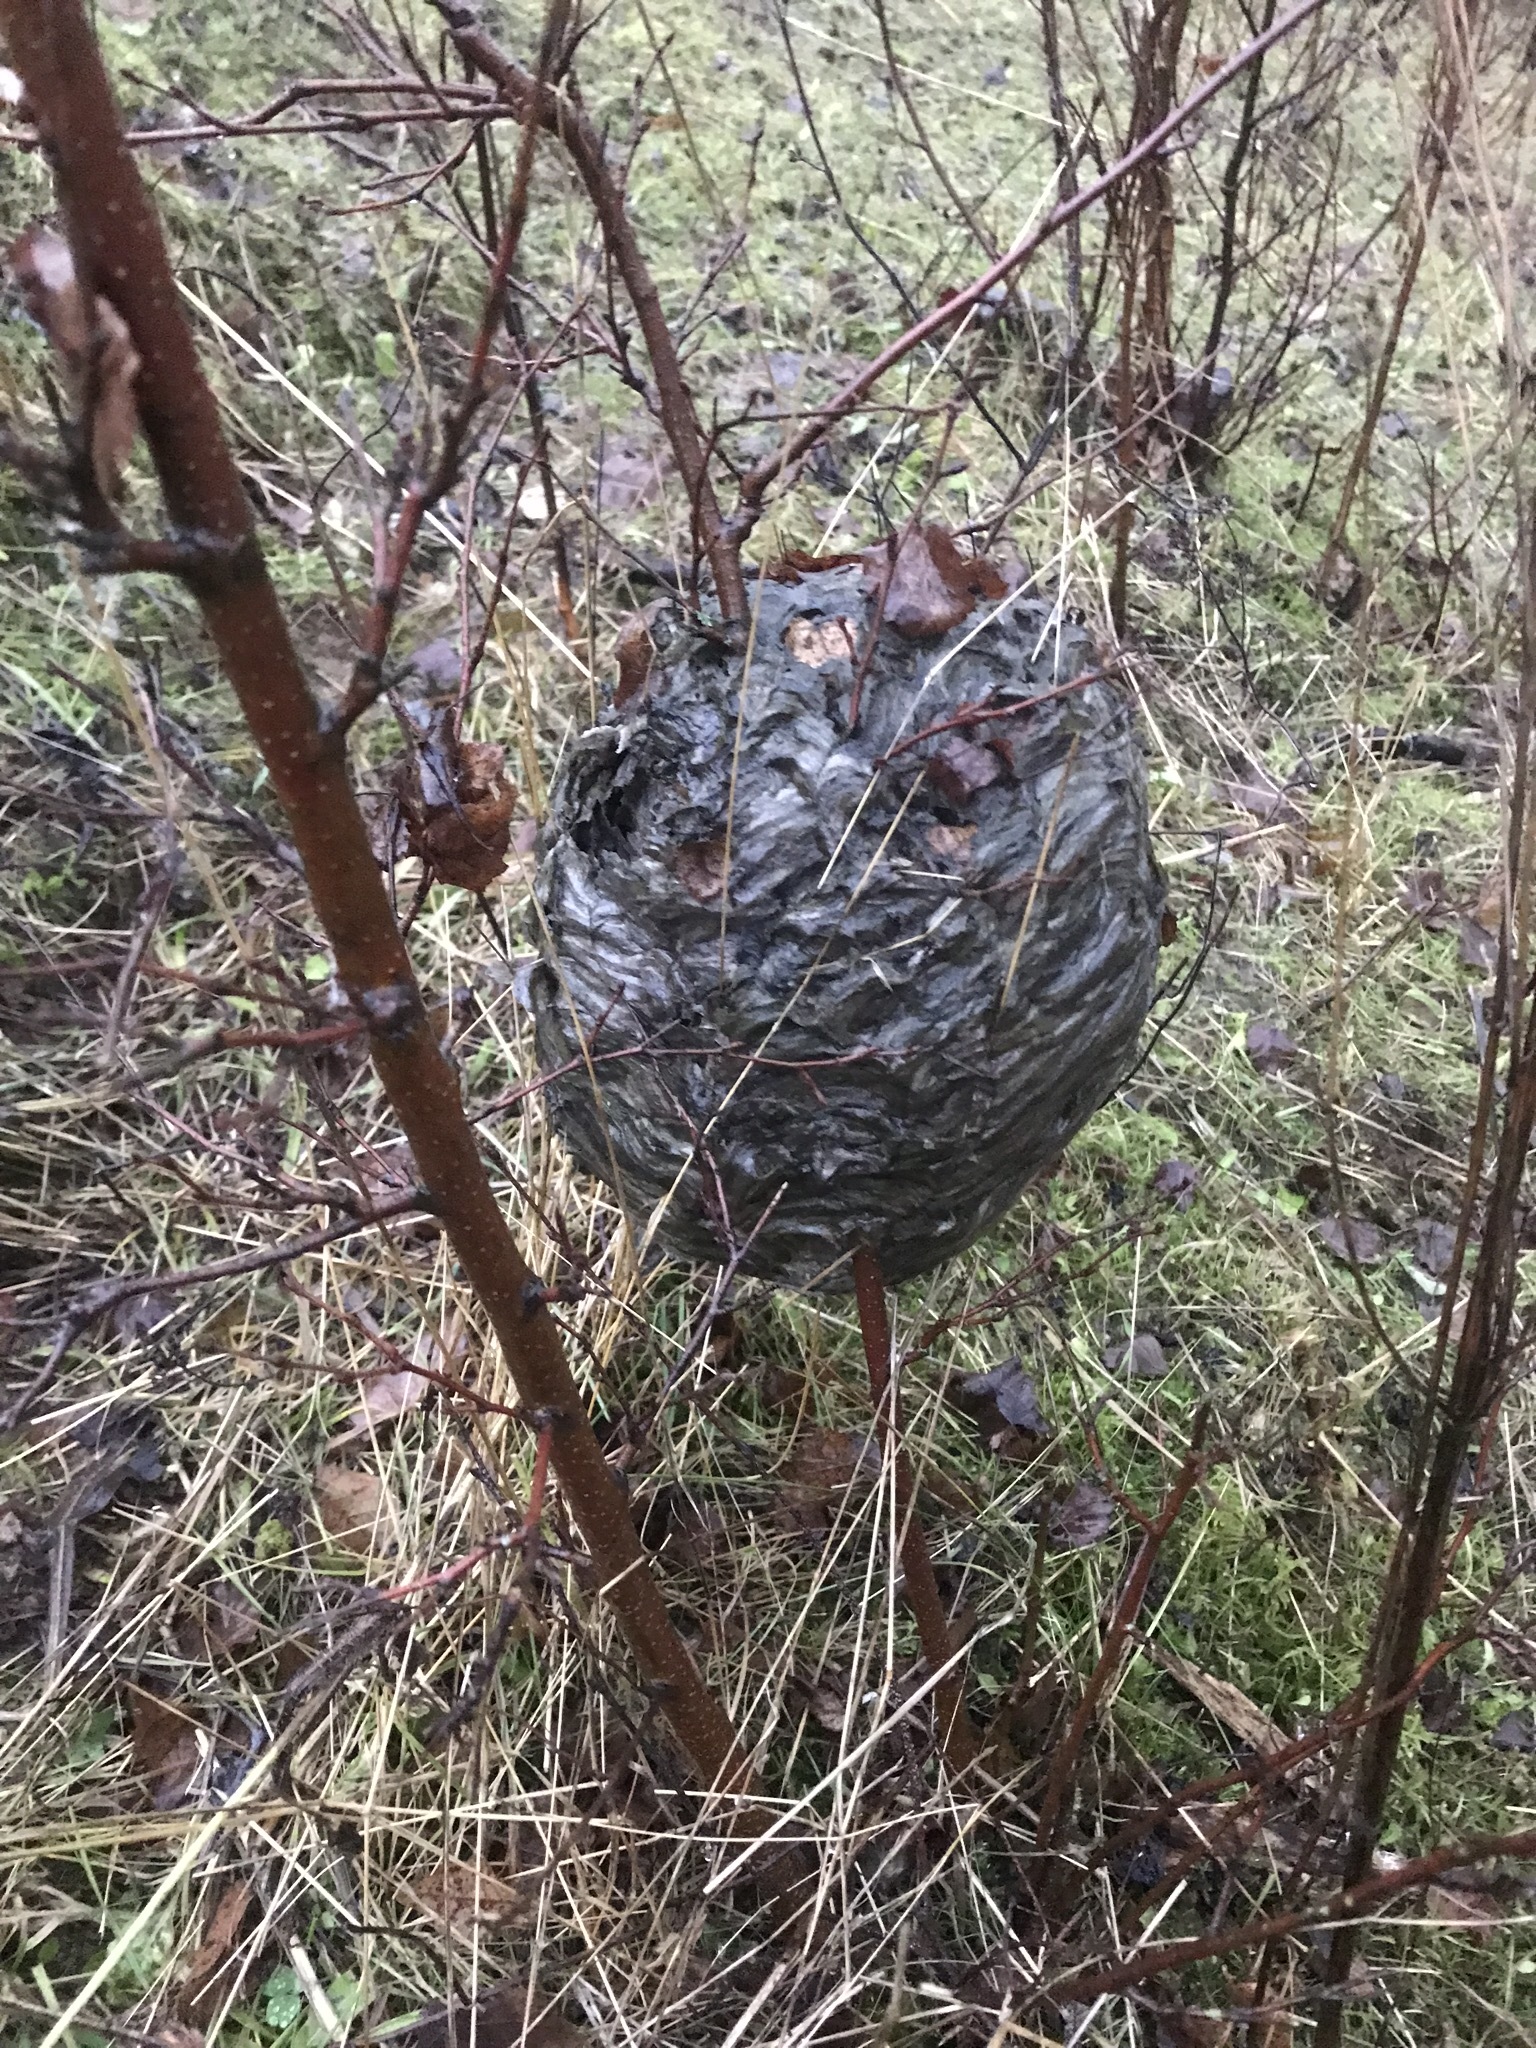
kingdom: Animalia
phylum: Arthropoda
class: Insecta
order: Hymenoptera
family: Vespidae
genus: Dolichovespula
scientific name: Dolichovespula media
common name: Median wasp
